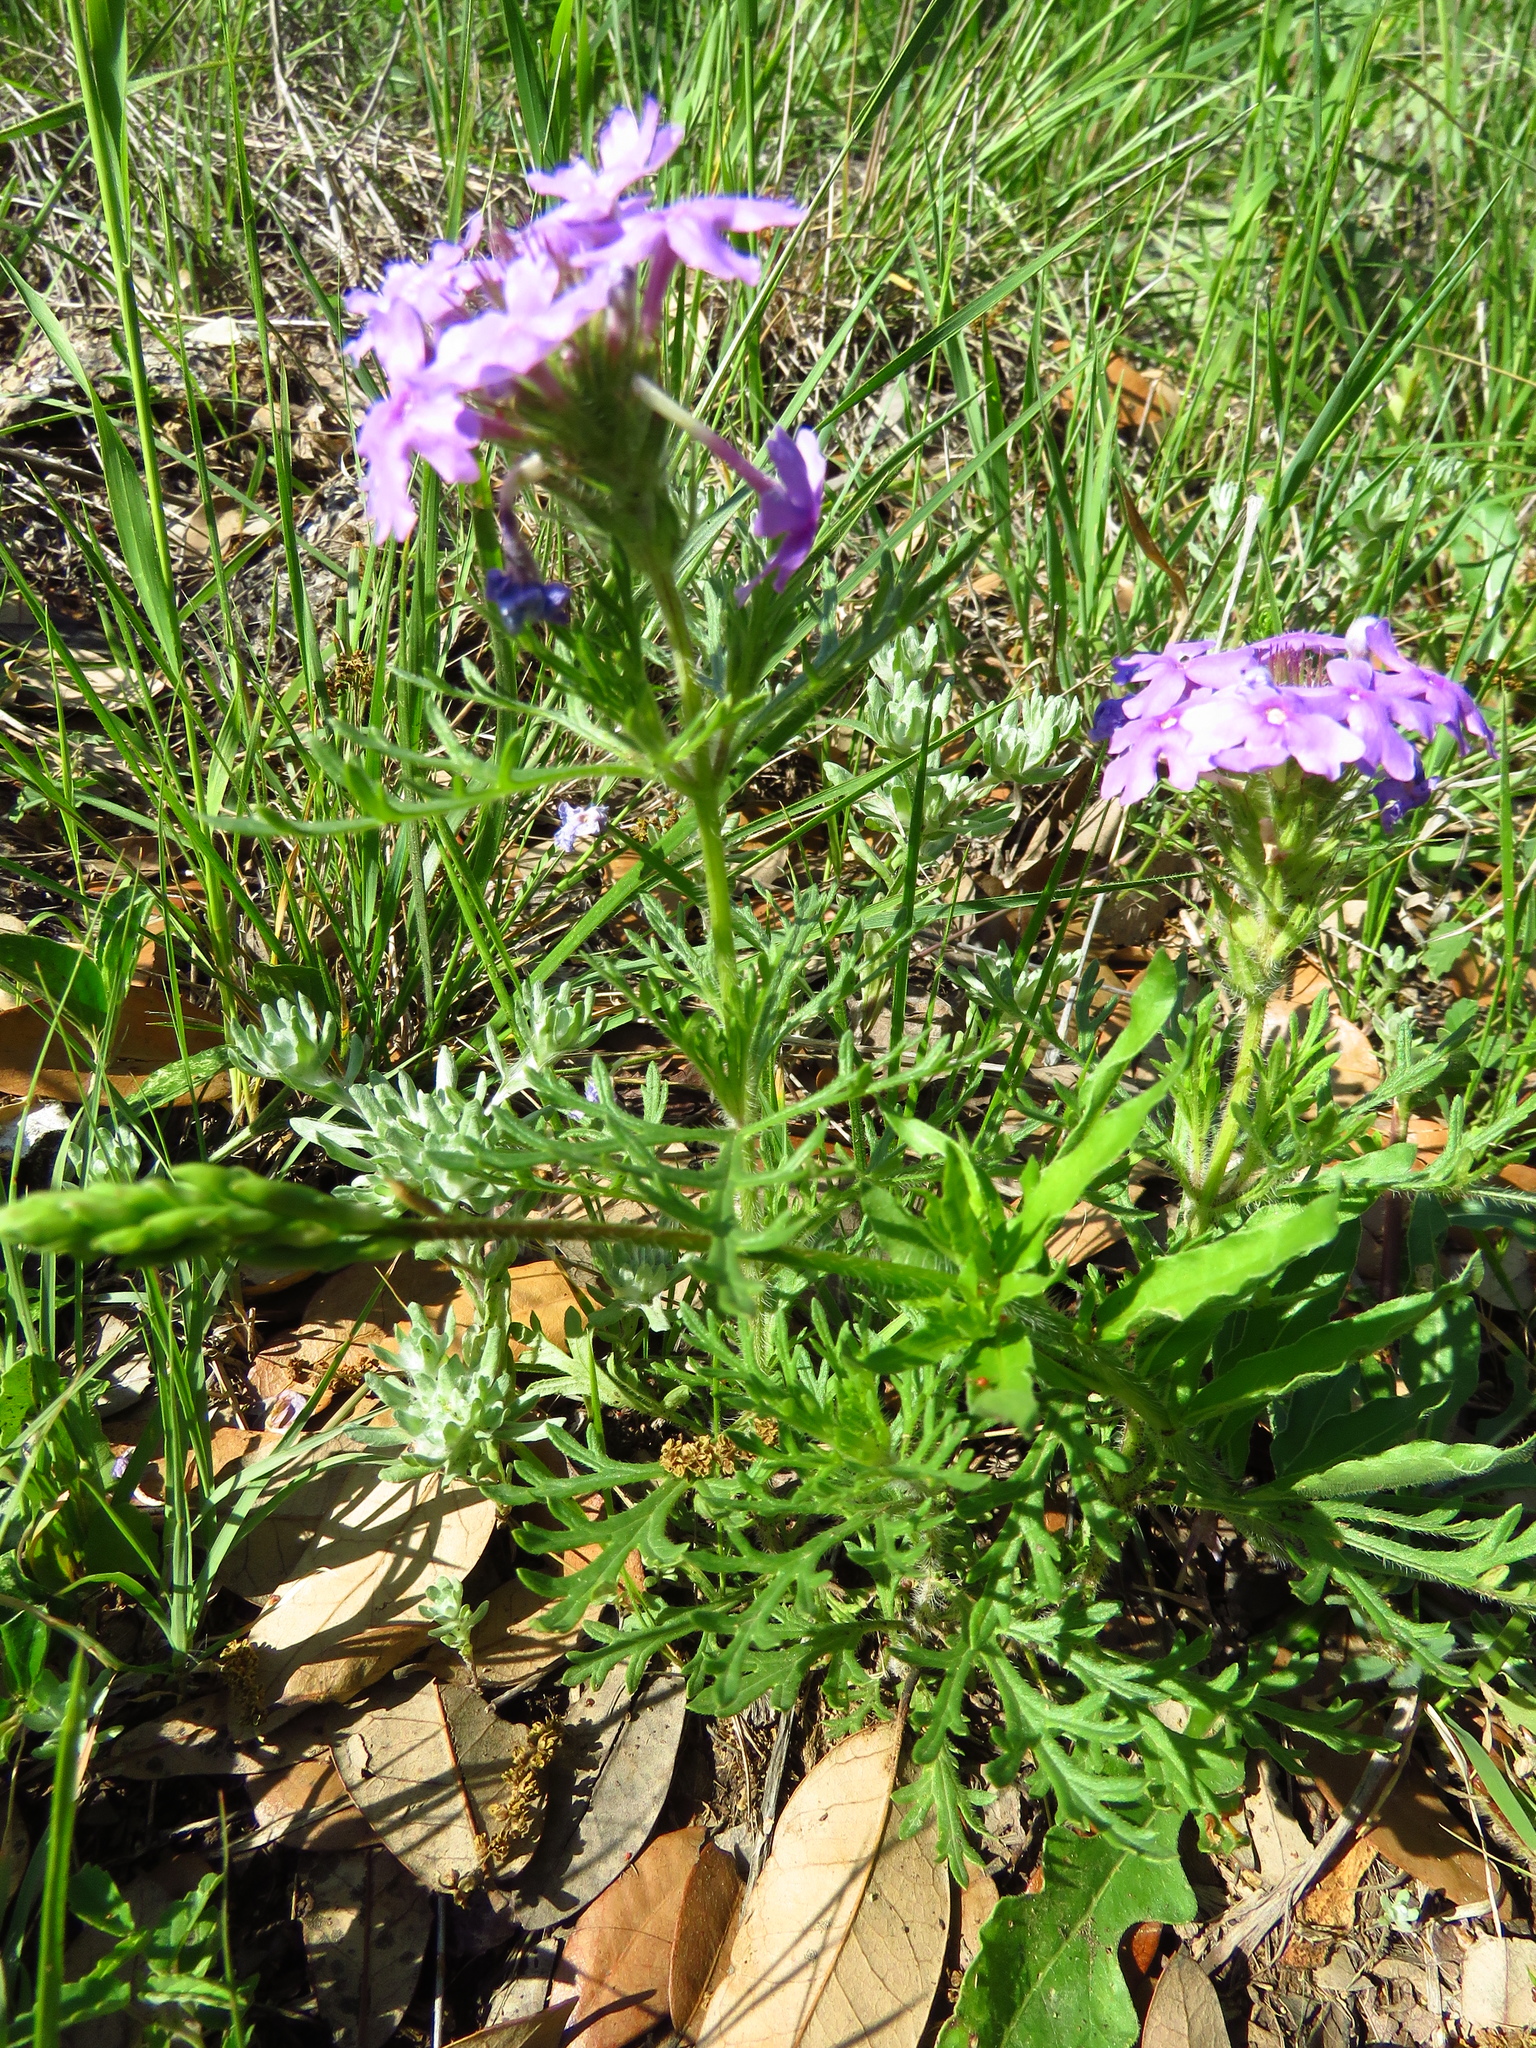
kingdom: Plantae
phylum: Tracheophyta
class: Magnoliopsida
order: Lamiales
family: Verbenaceae
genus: Verbena
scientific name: Verbena bipinnatifida
